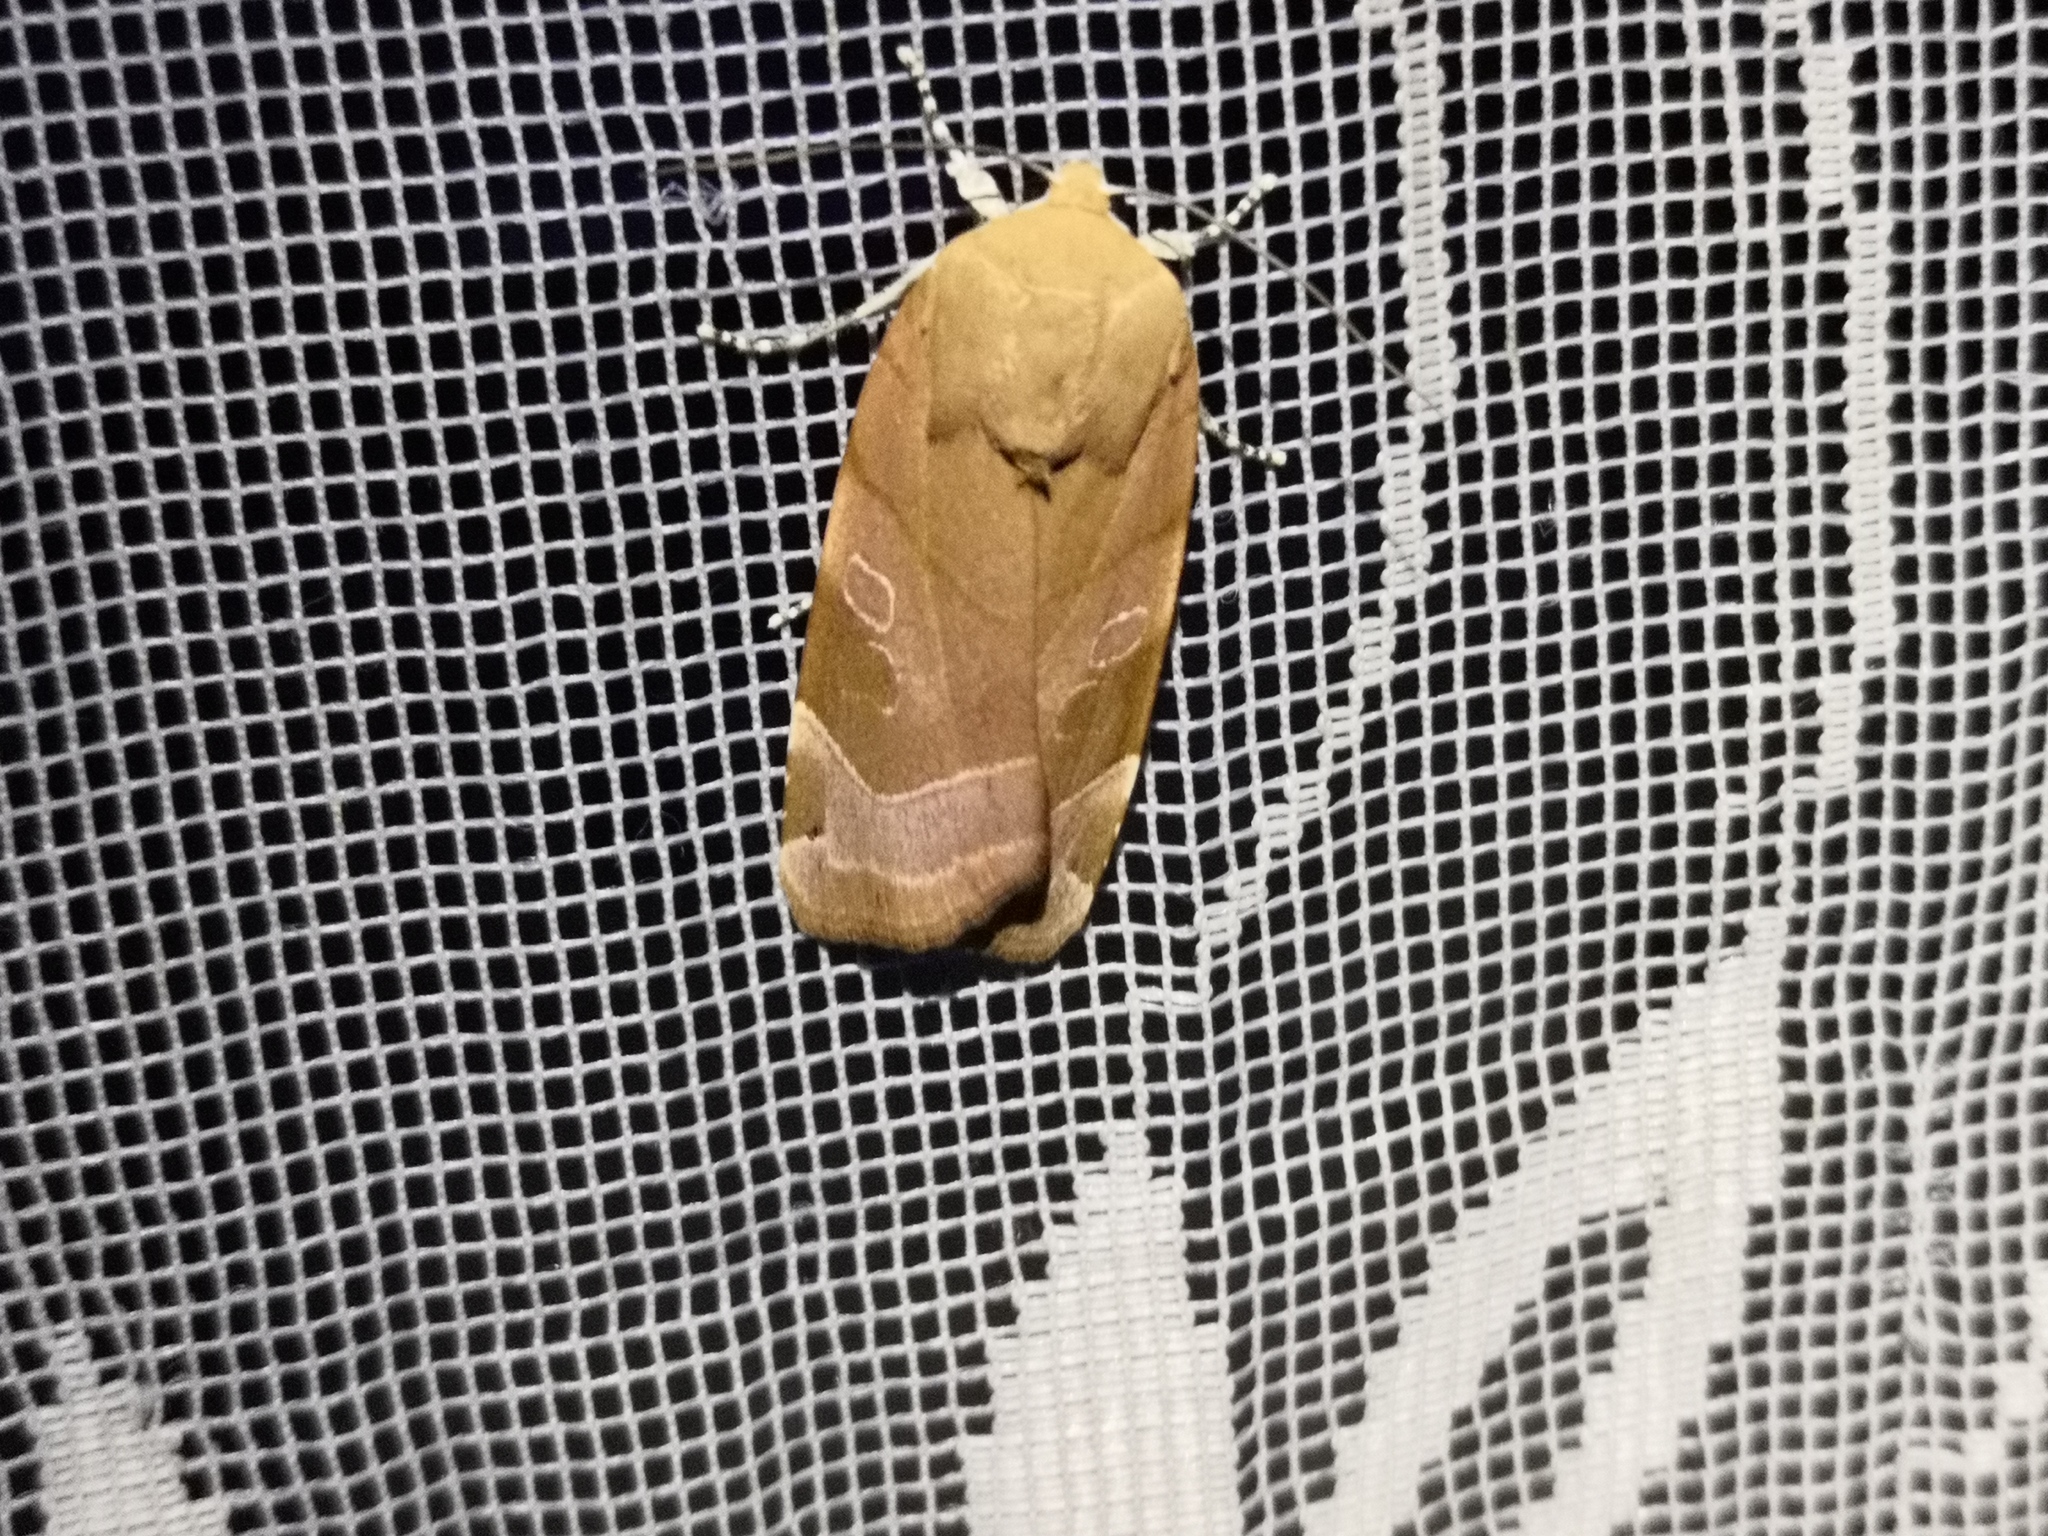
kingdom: Animalia
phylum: Arthropoda
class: Insecta
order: Lepidoptera
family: Noctuidae
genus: Noctua
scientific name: Noctua fimbriata
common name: Broad-bordered yellow underwing
